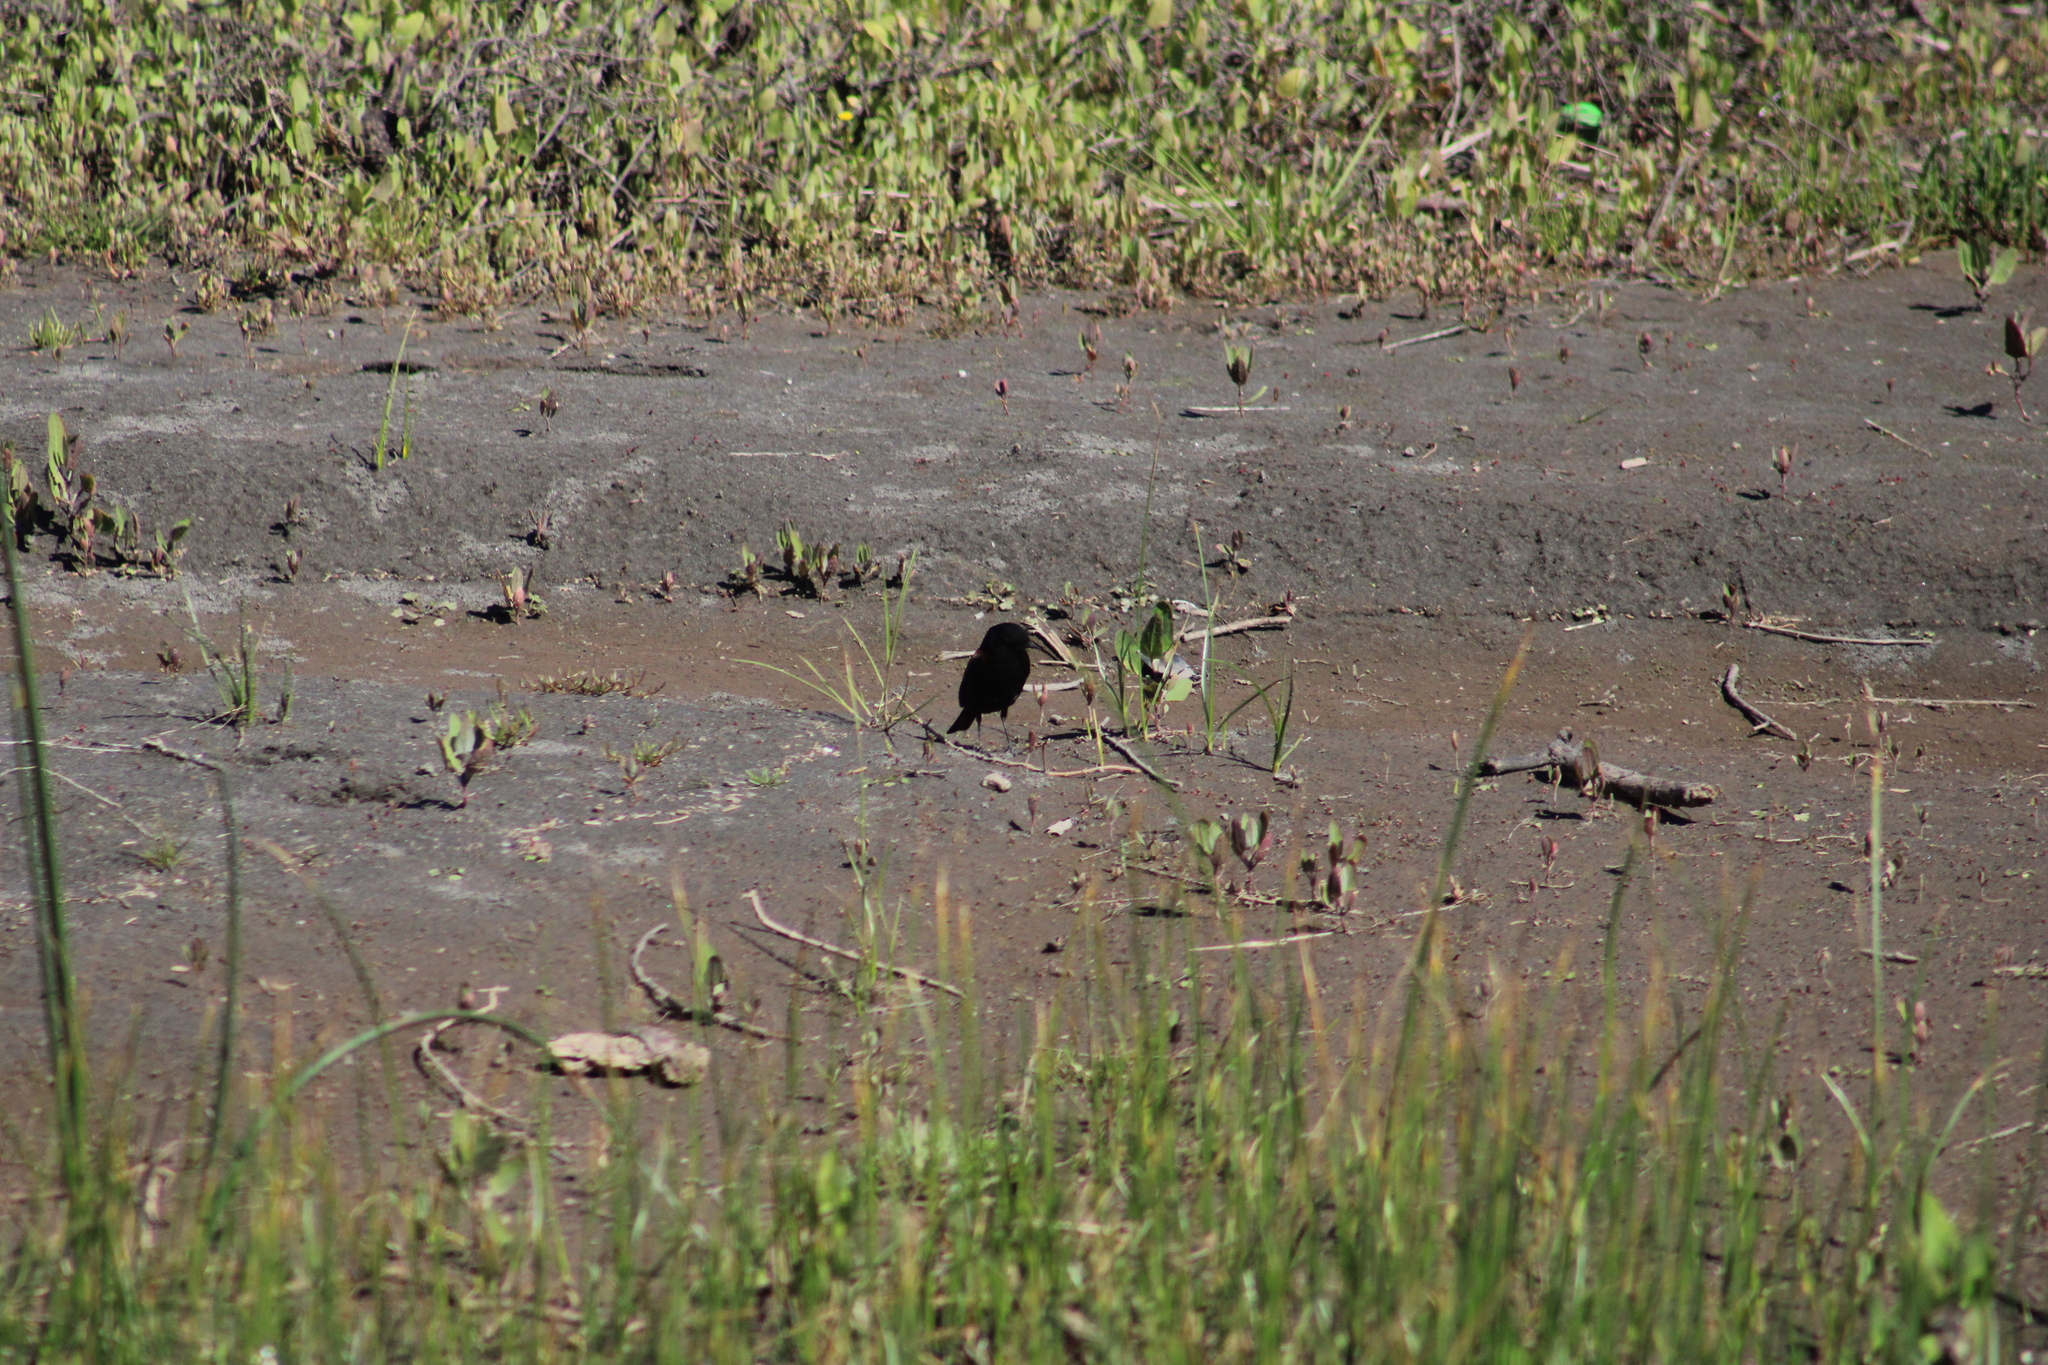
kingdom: Animalia
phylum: Chordata
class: Aves
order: Passeriformes
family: Tyrannidae
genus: Lessonia
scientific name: Lessonia rufa
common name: Austral negrito
